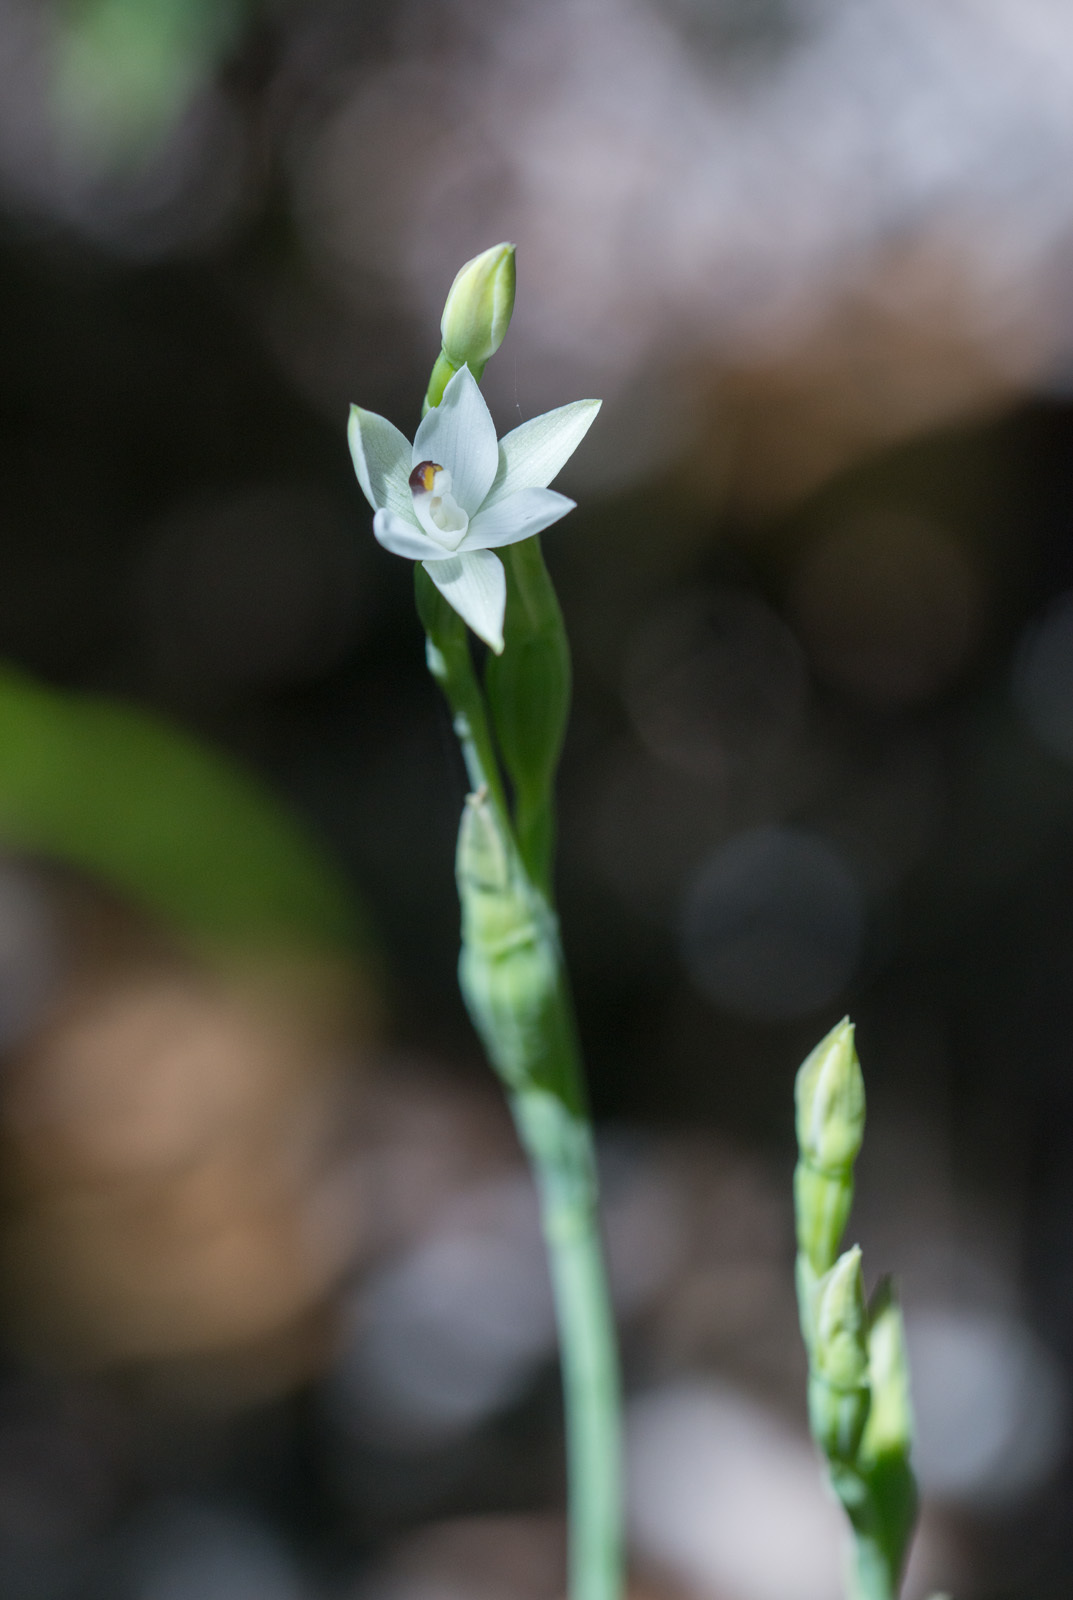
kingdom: Plantae
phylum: Tracheophyta
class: Liliopsida
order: Asparagales
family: Orchidaceae
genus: Thelymitra
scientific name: Thelymitra longifolia
